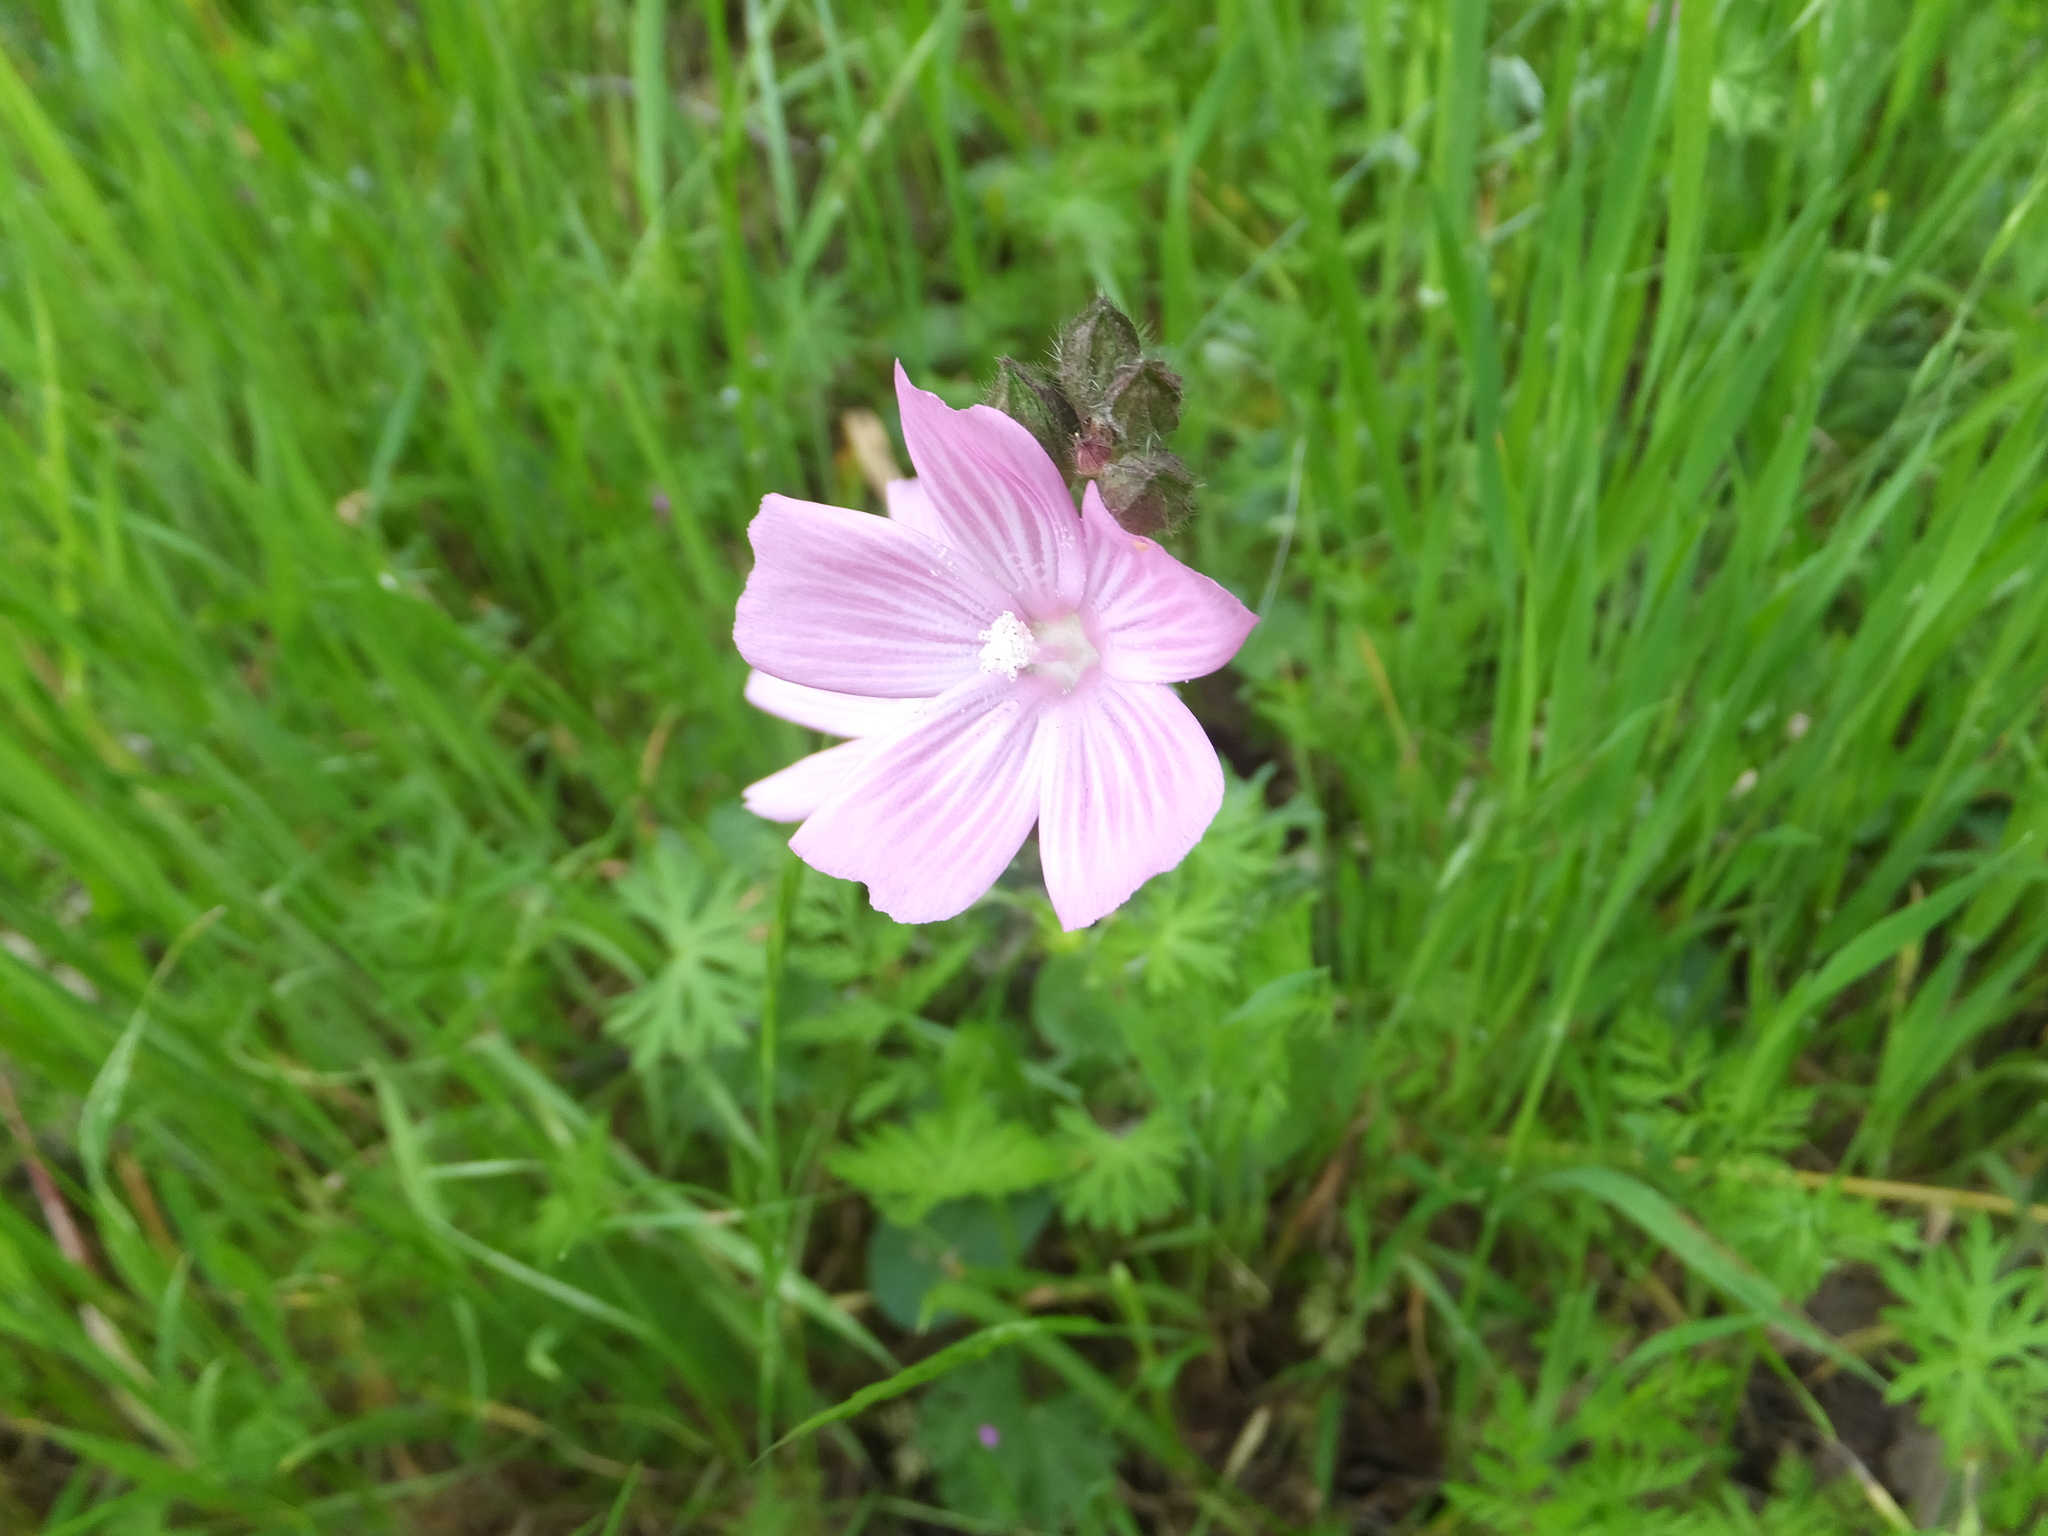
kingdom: Plantae
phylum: Tracheophyta
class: Magnoliopsida
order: Malvales
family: Malvaceae
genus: Sidalcea
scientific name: Sidalcea malviflora
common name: Greek mallow
